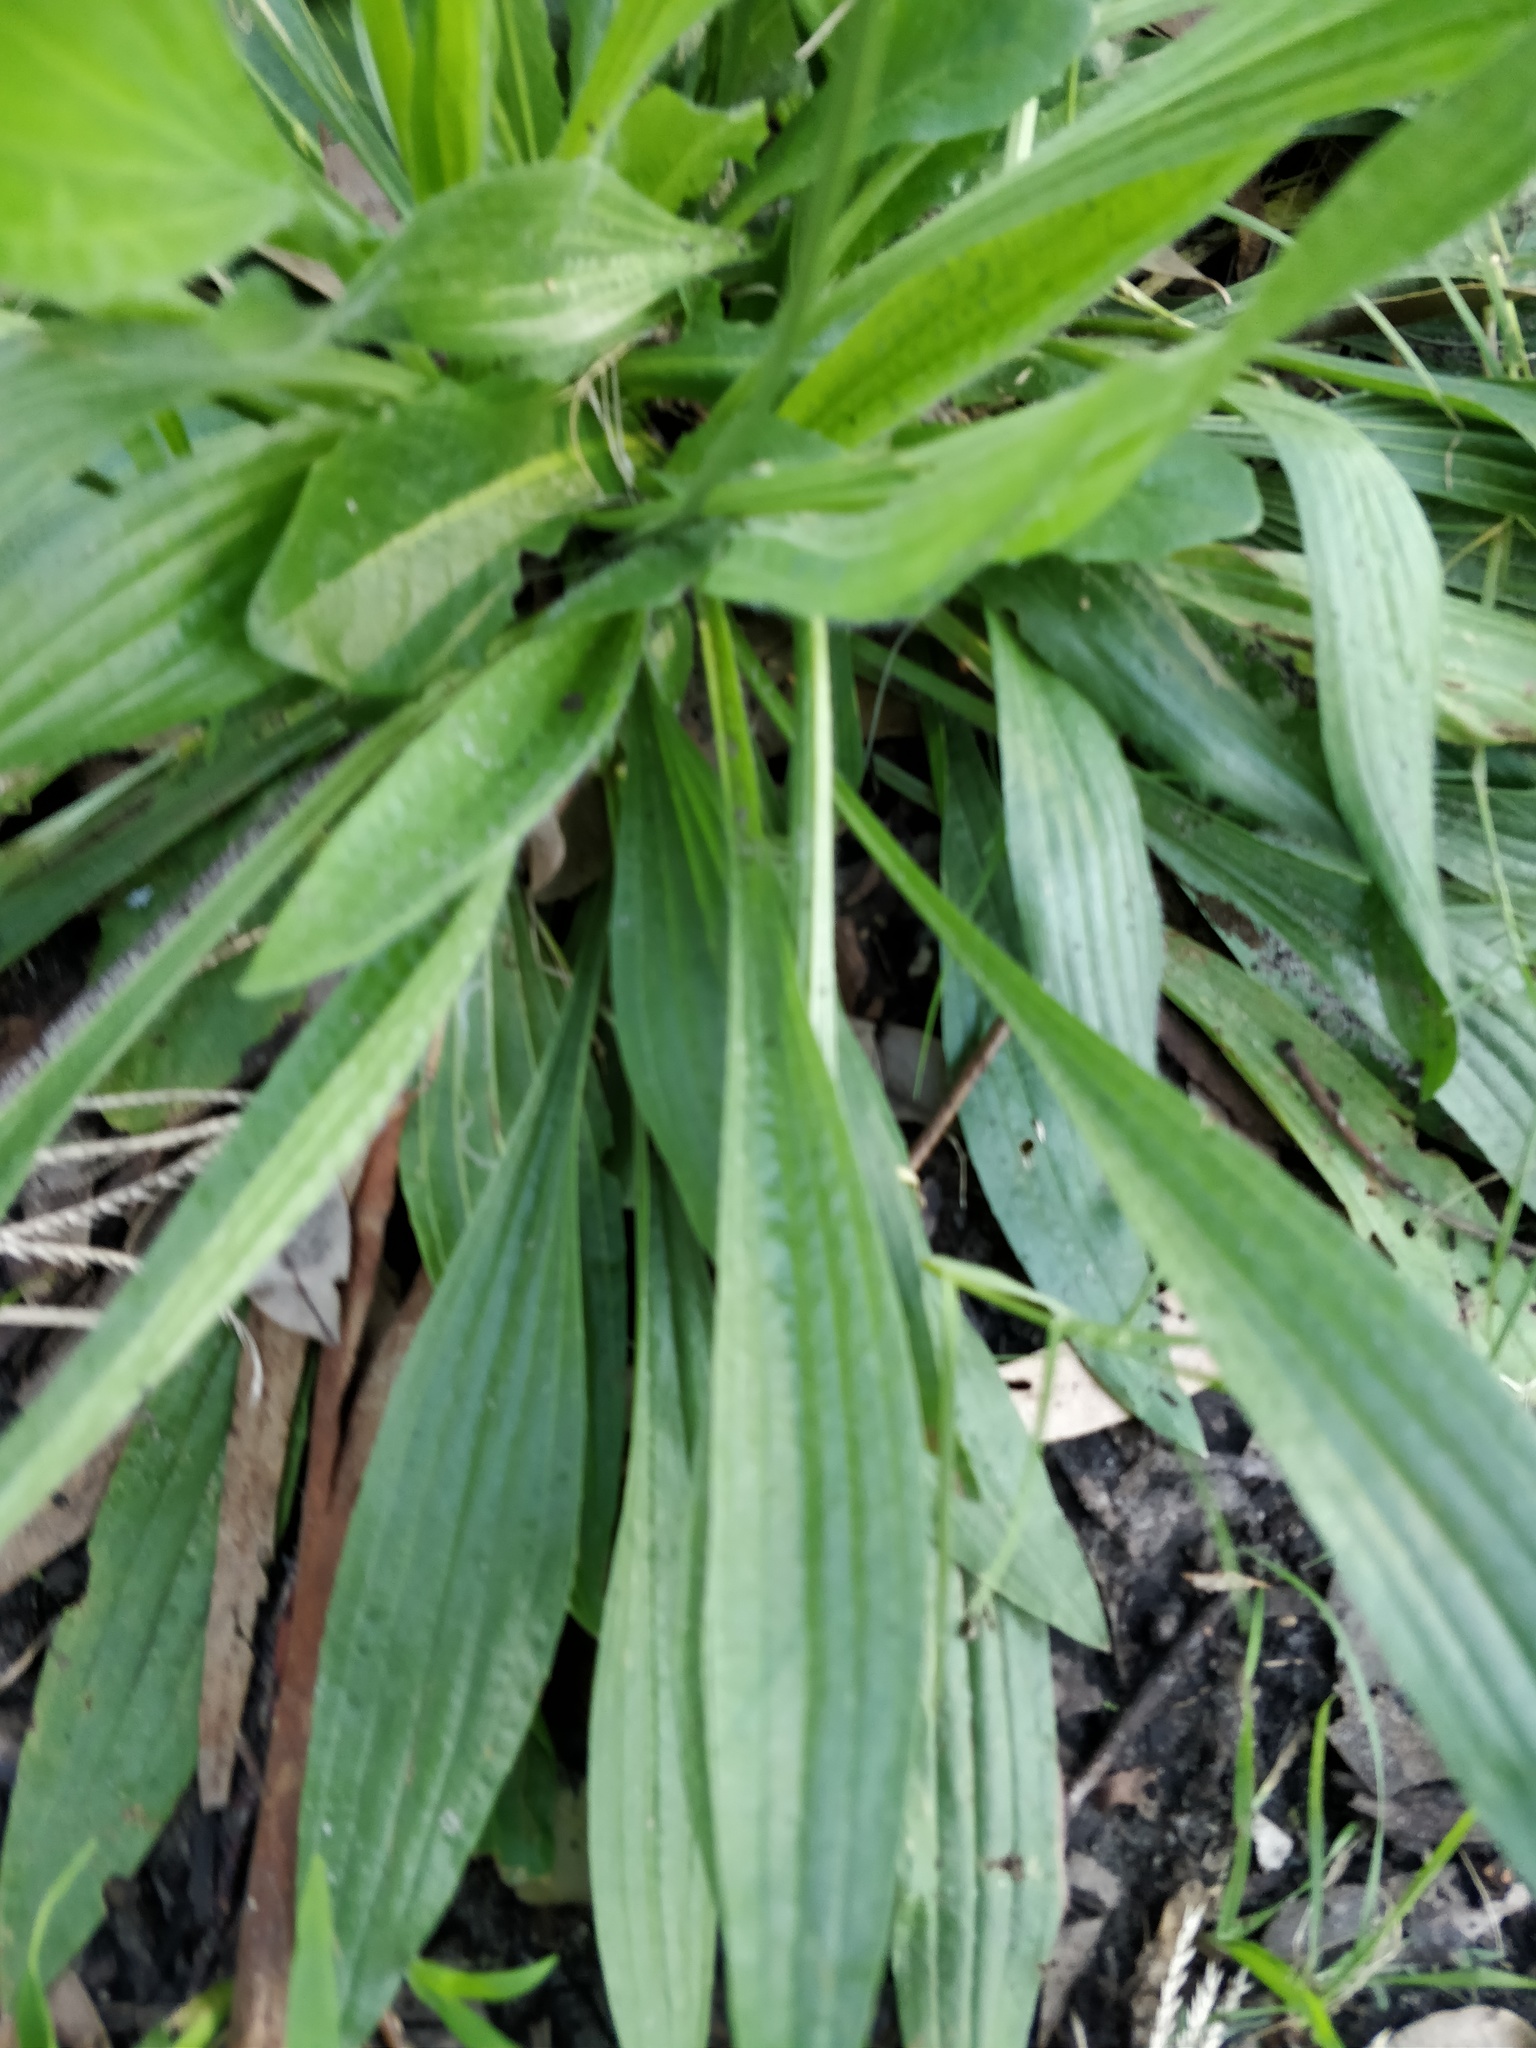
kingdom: Plantae
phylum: Tracheophyta
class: Magnoliopsida
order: Lamiales
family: Plantaginaceae
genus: Plantago
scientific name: Plantago lanceolata
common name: Ribwort plantain
